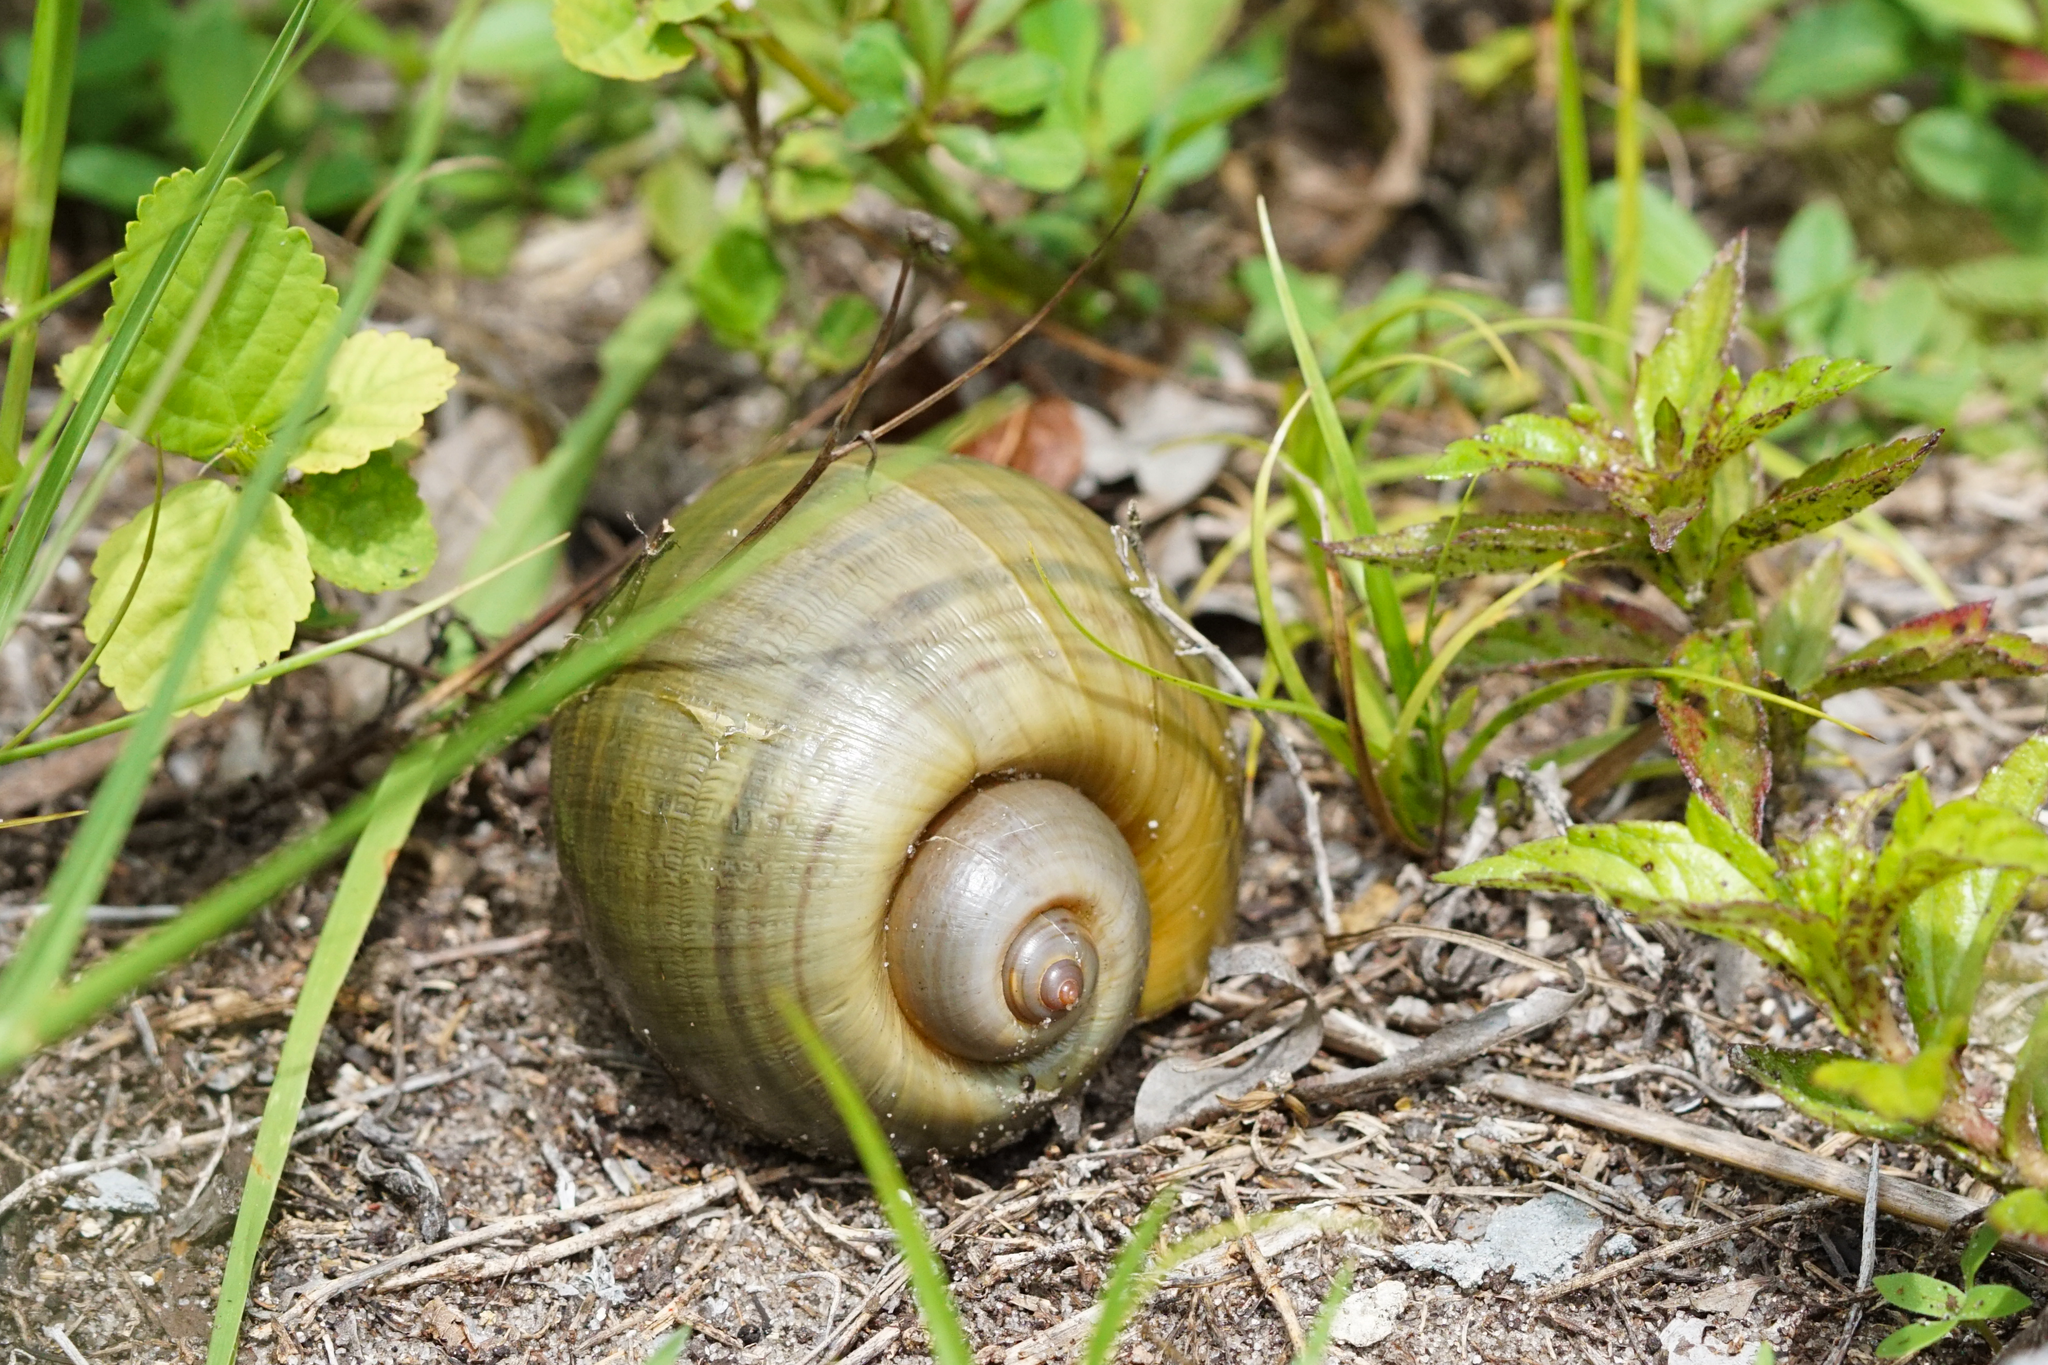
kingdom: Animalia
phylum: Mollusca
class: Gastropoda
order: Architaenioglossa
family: Ampullariidae
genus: Pomacea
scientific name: Pomacea maculata
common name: Giant applesnail
